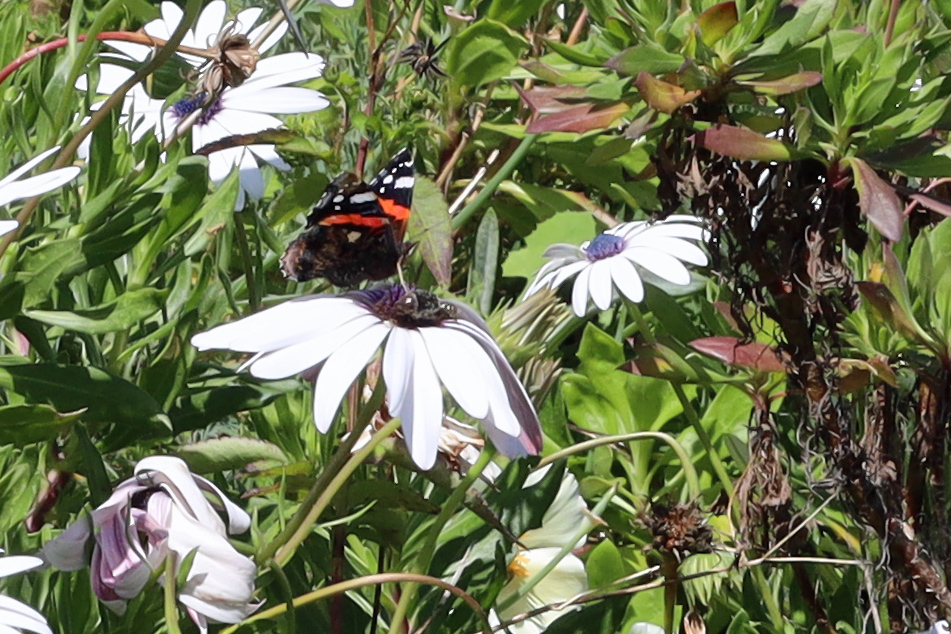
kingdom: Animalia
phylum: Arthropoda
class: Insecta
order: Lepidoptera
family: Nymphalidae
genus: Vanessa
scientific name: Vanessa atalanta
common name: Red admiral
